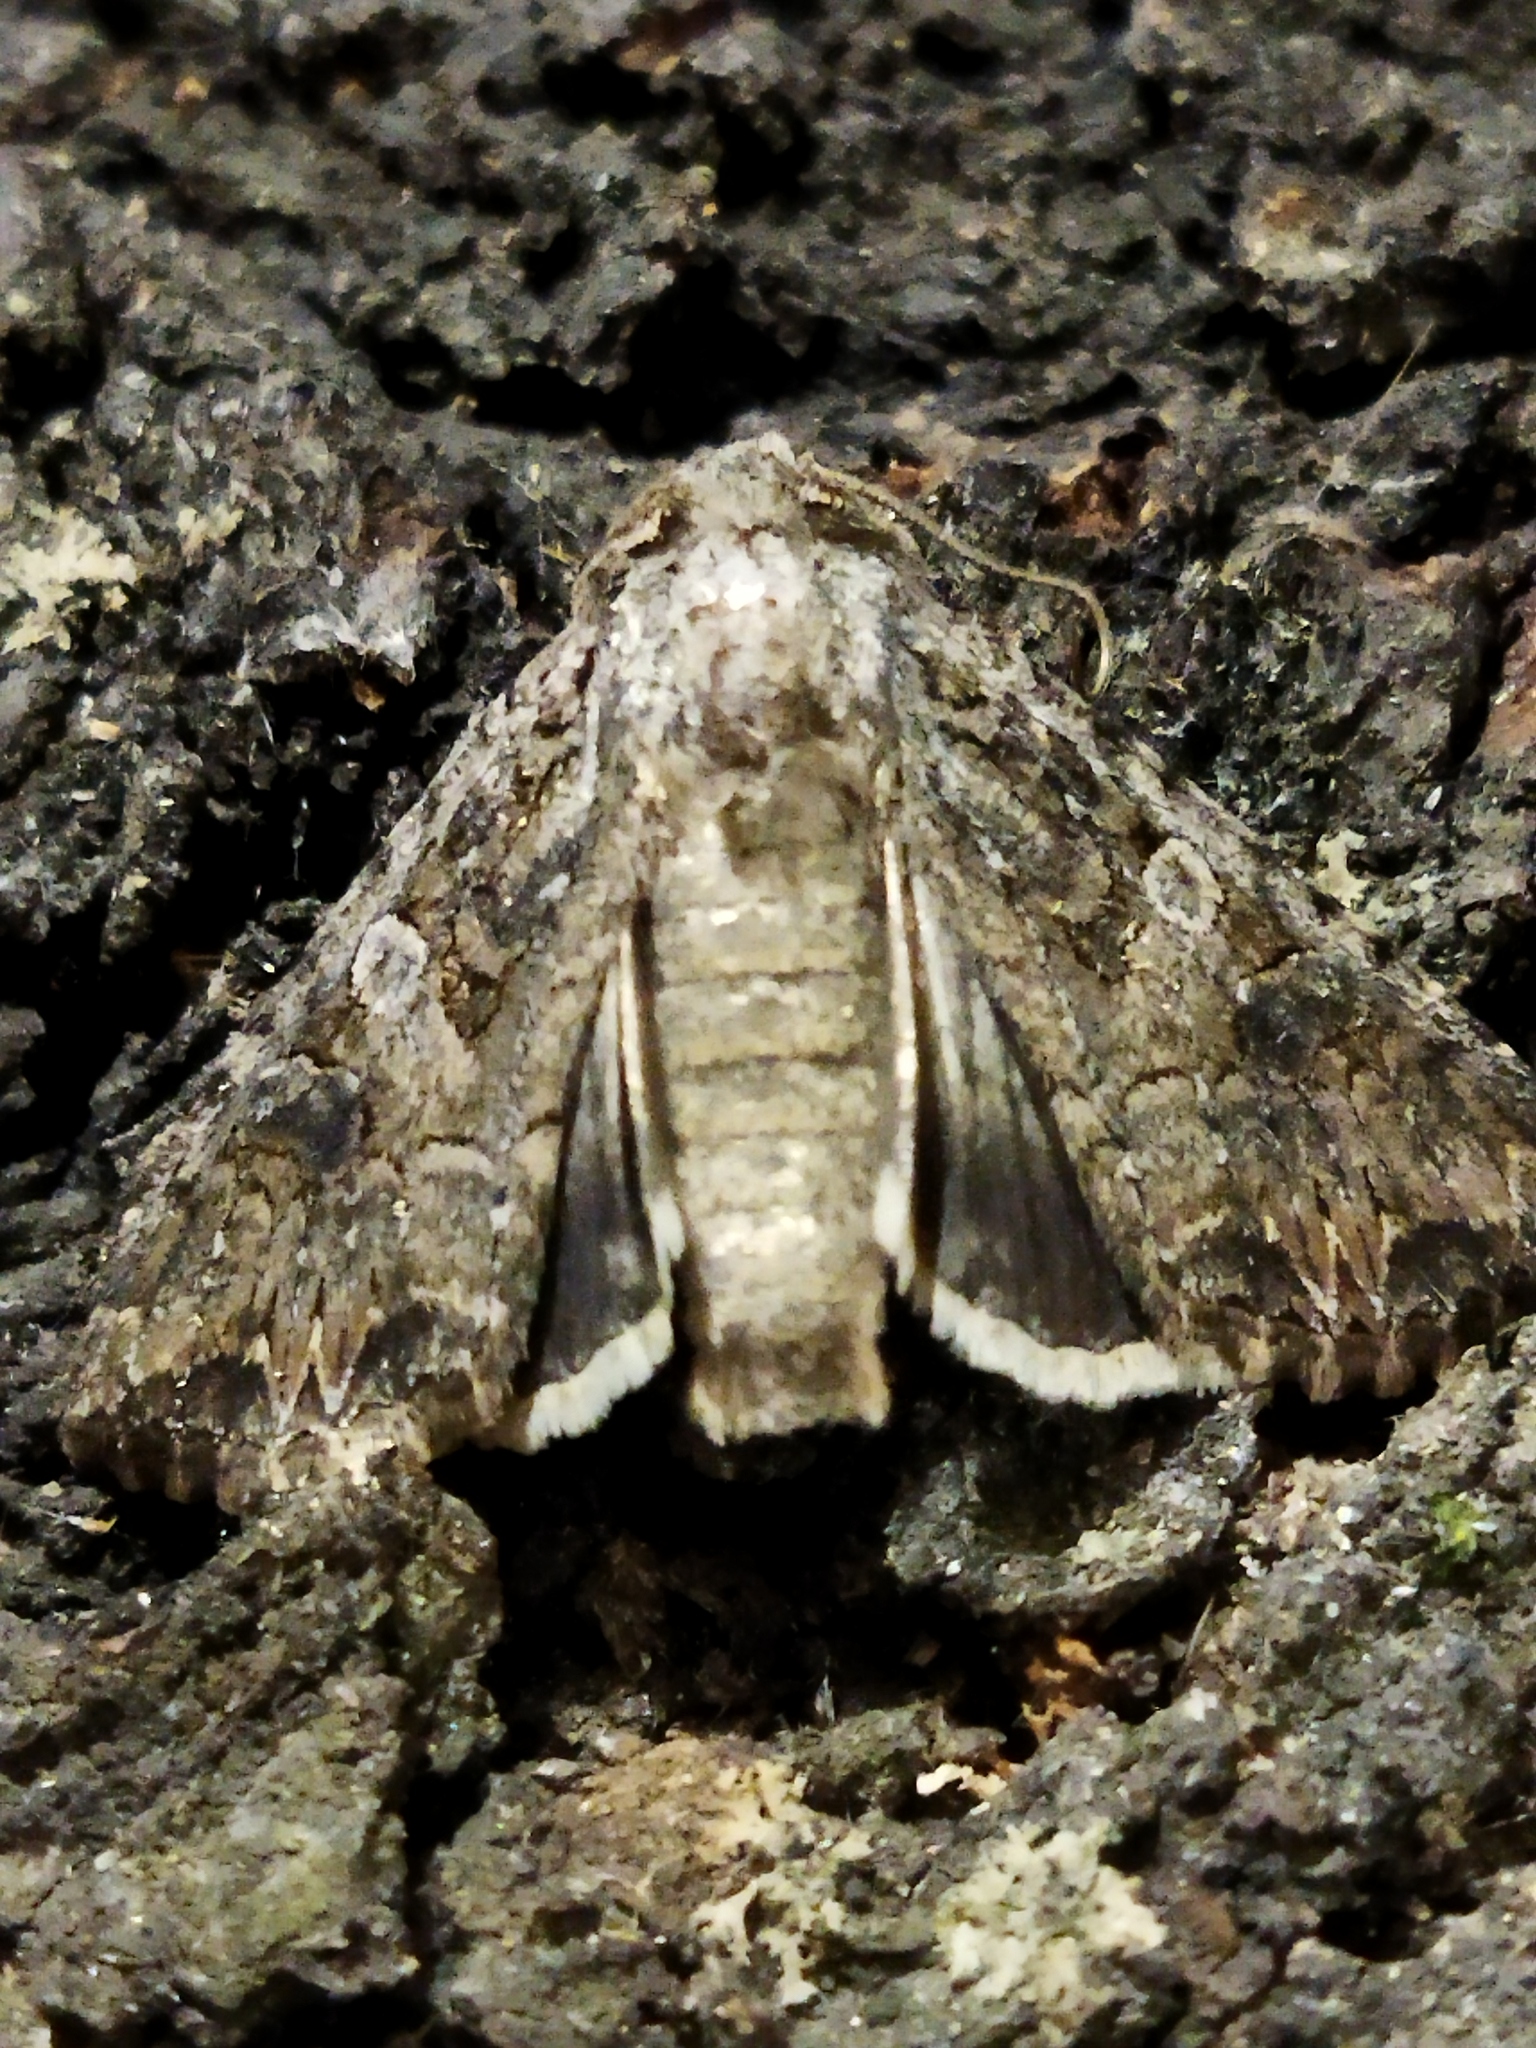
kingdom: Animalia
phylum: Arthropoda
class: Insecta
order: Lepidoptera
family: Noctuidae
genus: Anarta
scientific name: Anarta trifolii
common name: Clover cutworm moth
